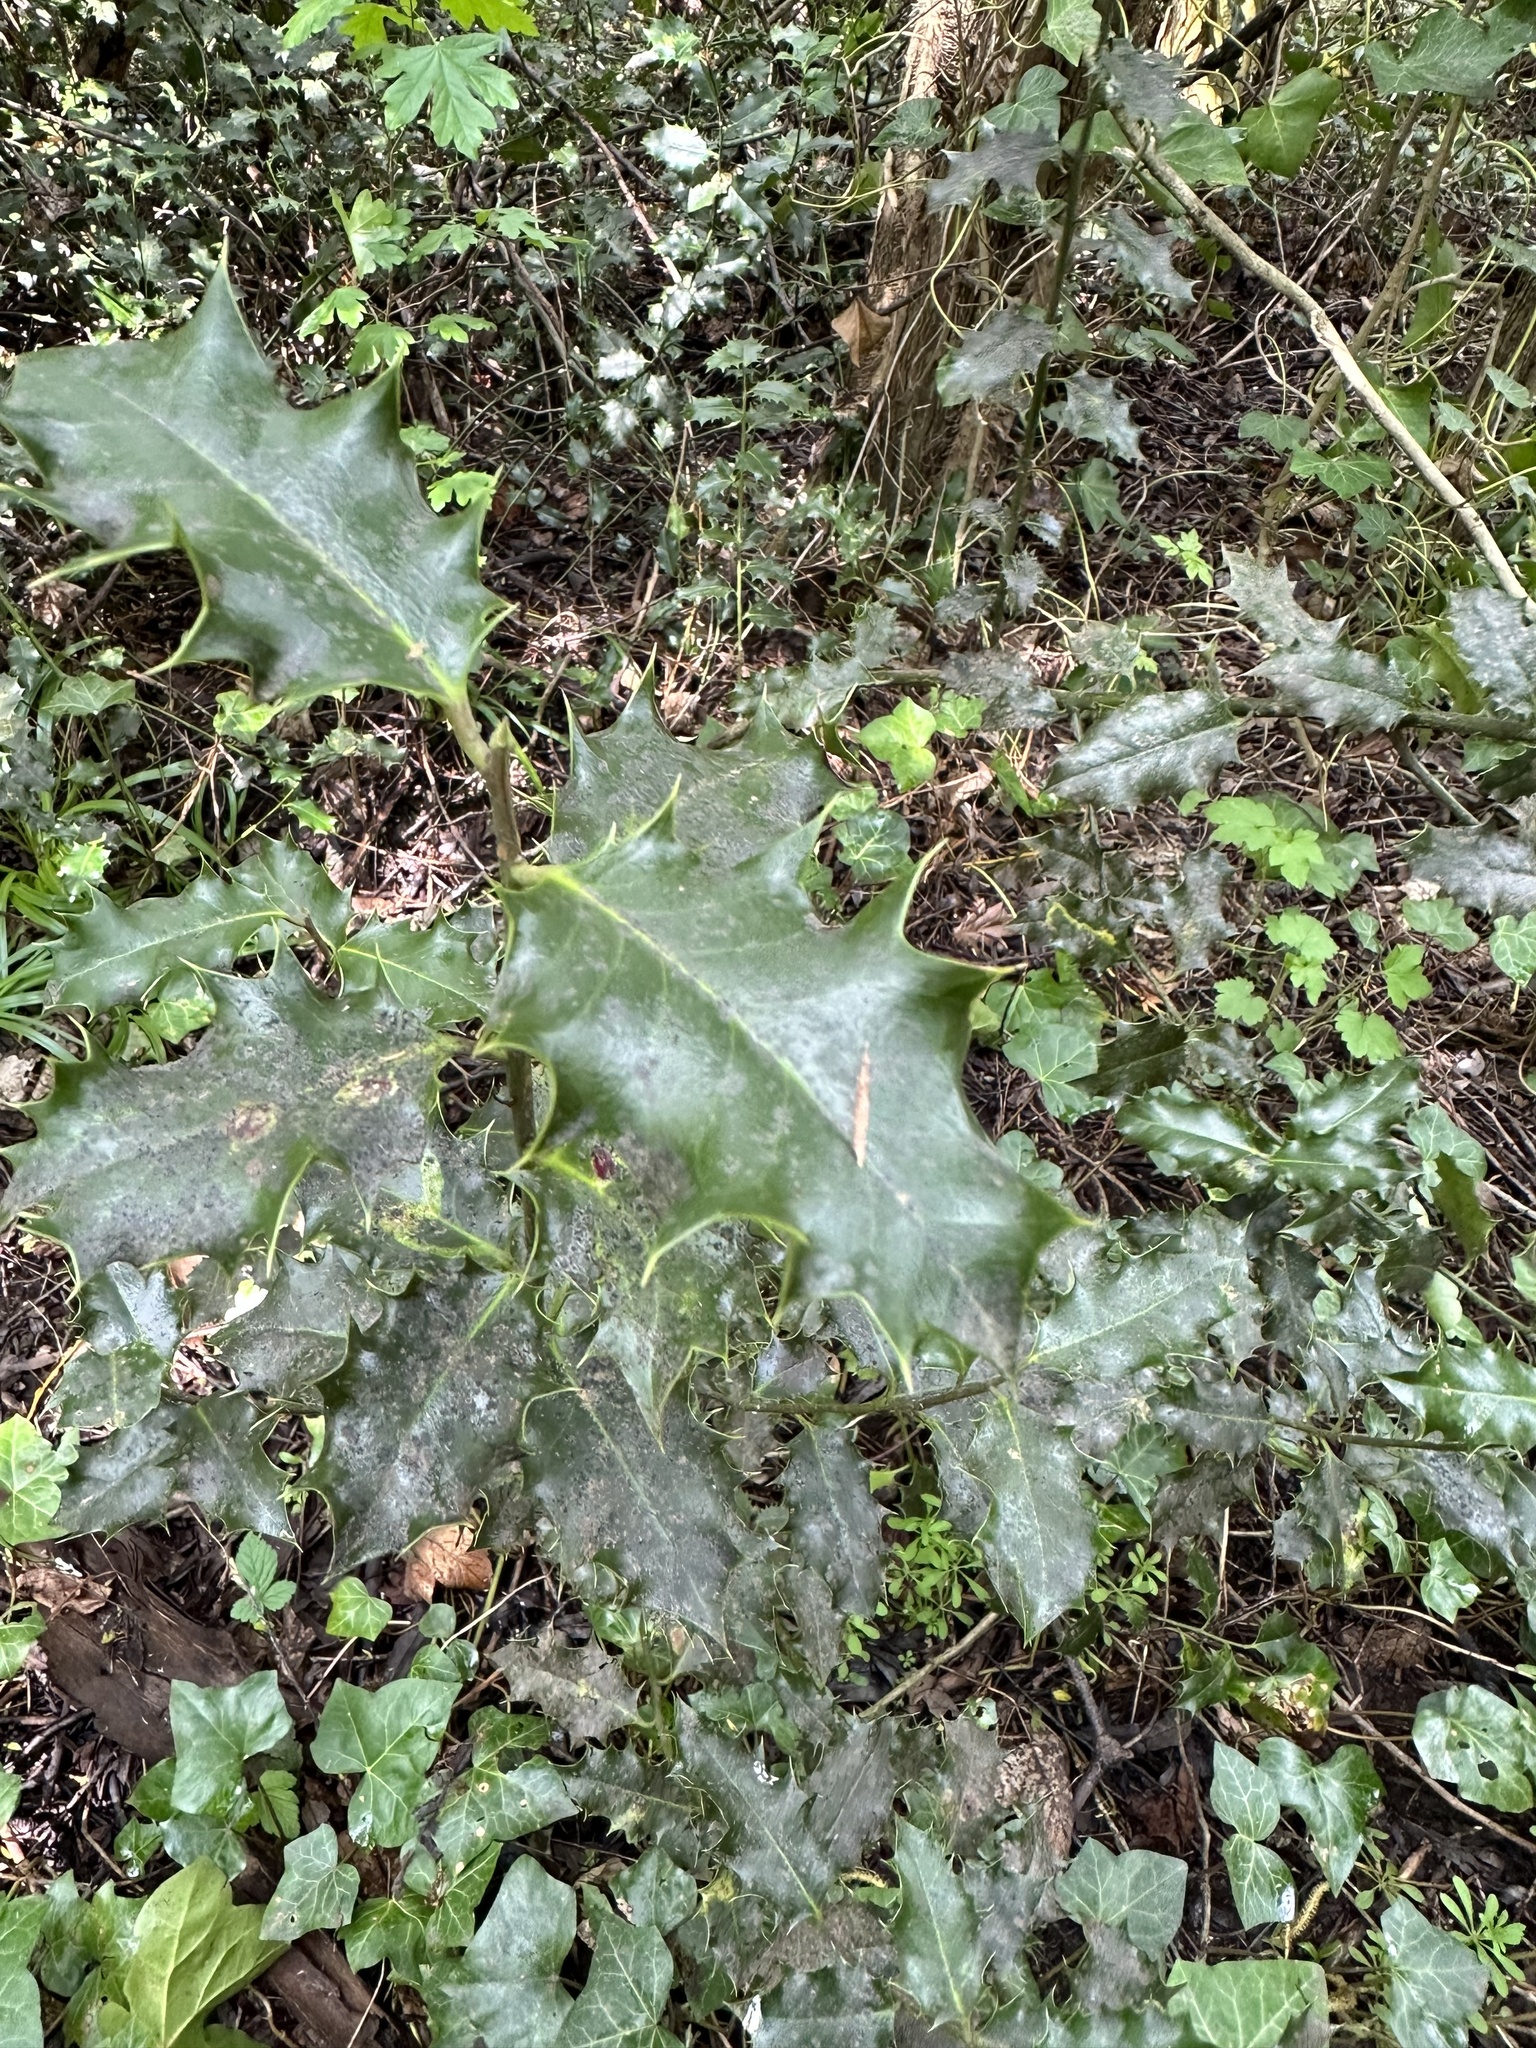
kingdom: Plantae
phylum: Tracheophyta
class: Magnoliopsida
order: Aquifoliales
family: Aquifoliaceae
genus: Ilex
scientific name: Ilex aquifolium
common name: English holly
